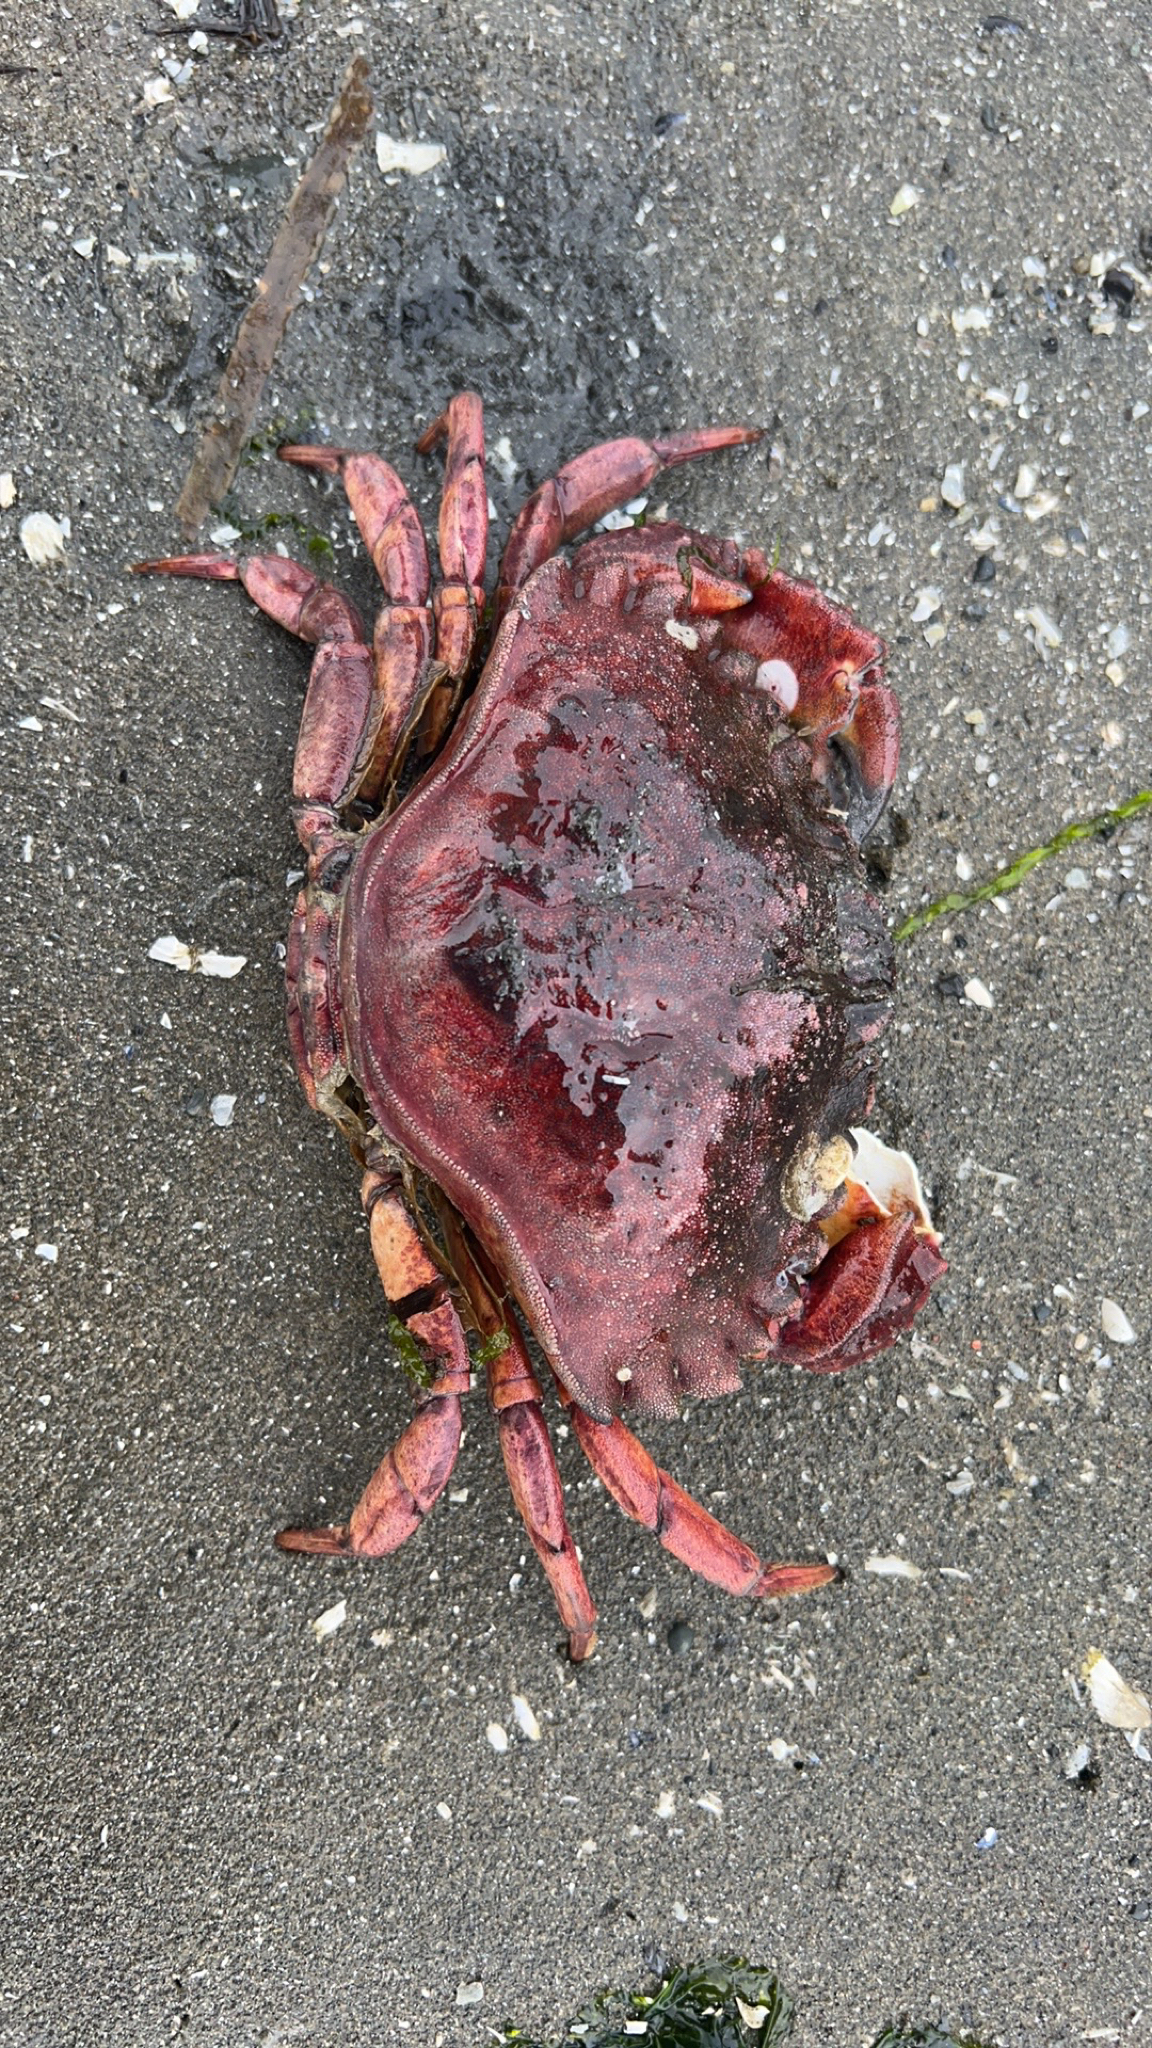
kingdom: Animalia
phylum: Arthropoda
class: Malacostraca
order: Decapoda
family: Cancridae
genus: Cancer
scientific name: Cancer productus
